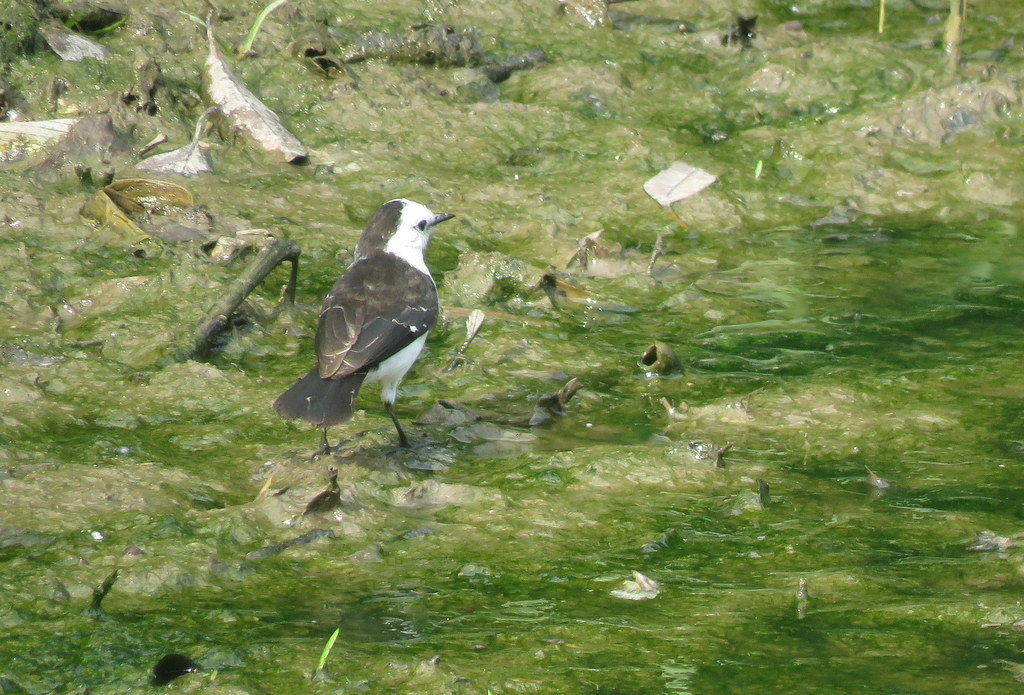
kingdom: Animalia
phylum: Chordata
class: Aves
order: Passeriformes
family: Tyrannidae
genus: Fluvicola
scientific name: Fluvicola pica
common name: Pied water-tyrant
